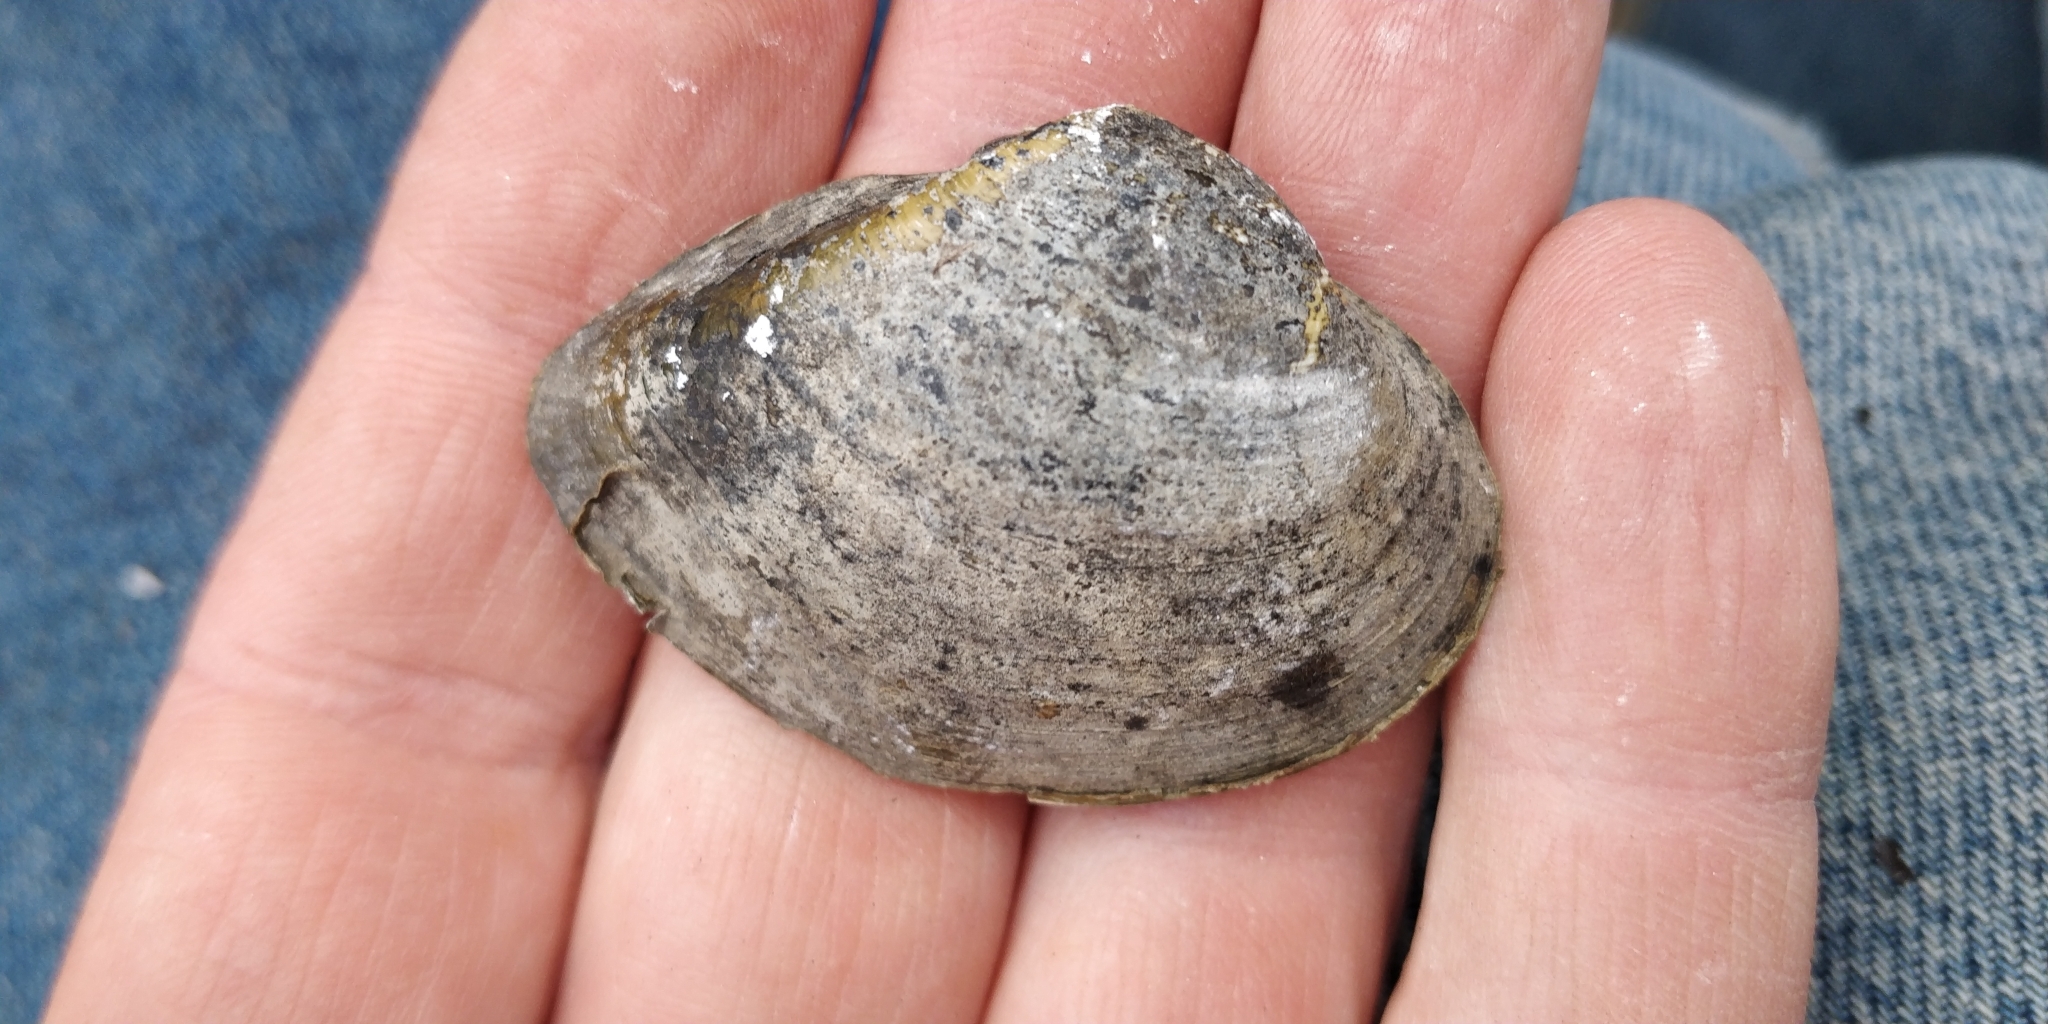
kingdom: Animalia
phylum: Mollusca
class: Bivalvia
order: Unionida
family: Unionidae
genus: Truncilla
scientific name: Truncilla truncata
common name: Deertoe
